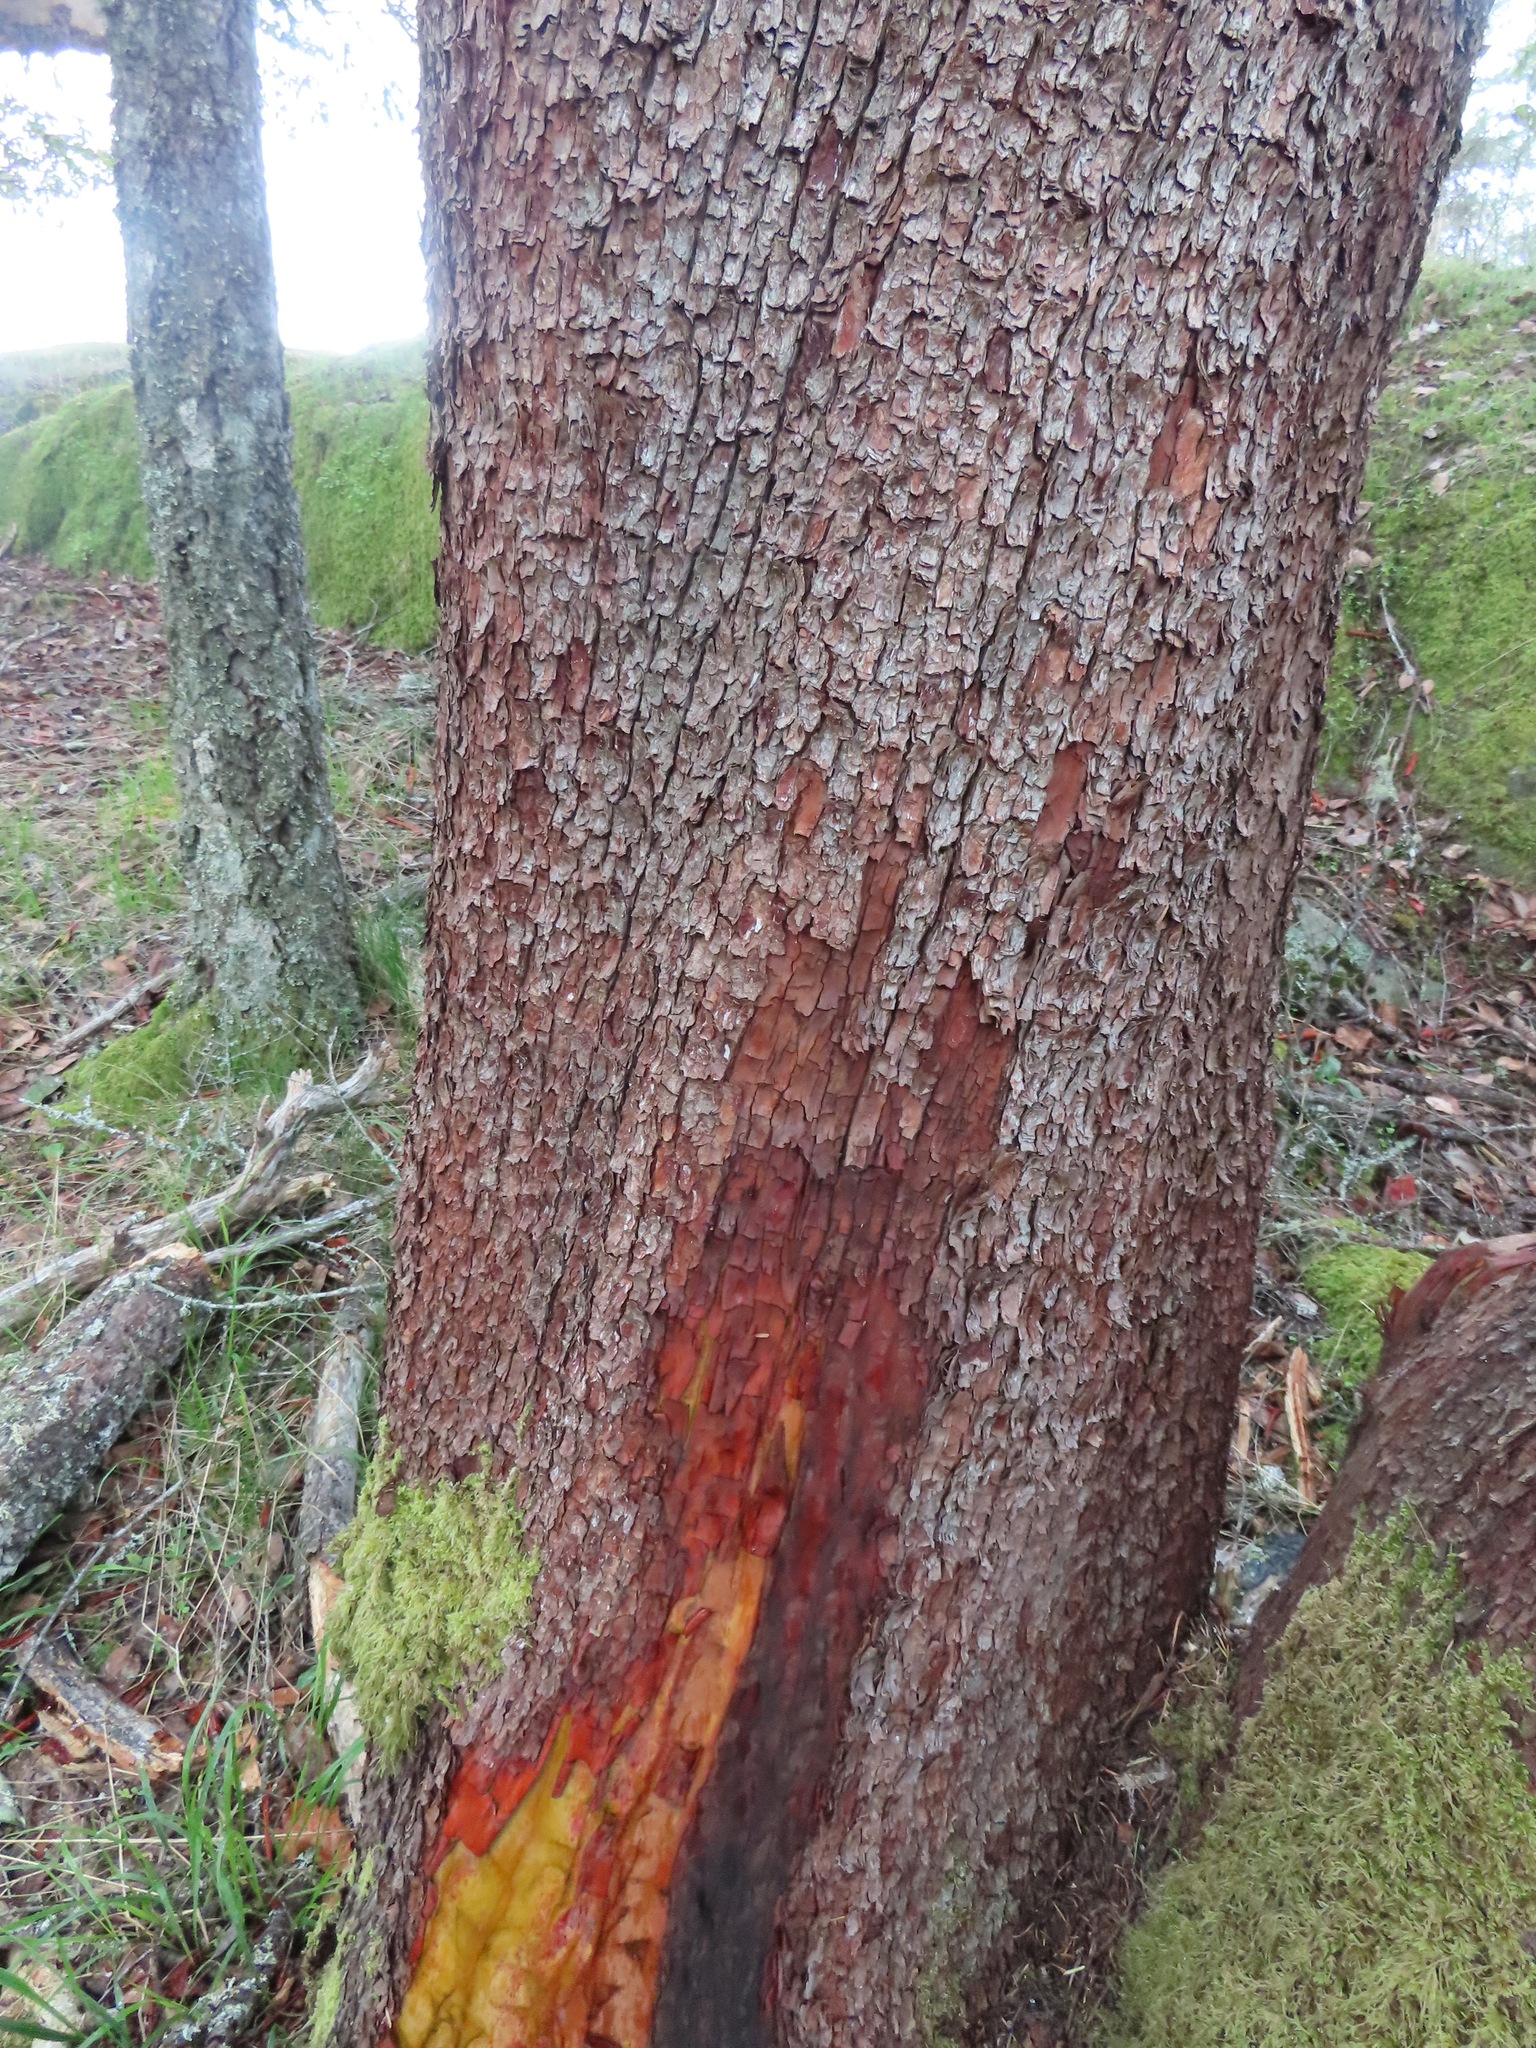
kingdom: Plantae
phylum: Tracheophyta
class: Magnoliopsida
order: Ericales
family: Ericaceae
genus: Arbutus
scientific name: Arbutus menziesii
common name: Pacific madrone
